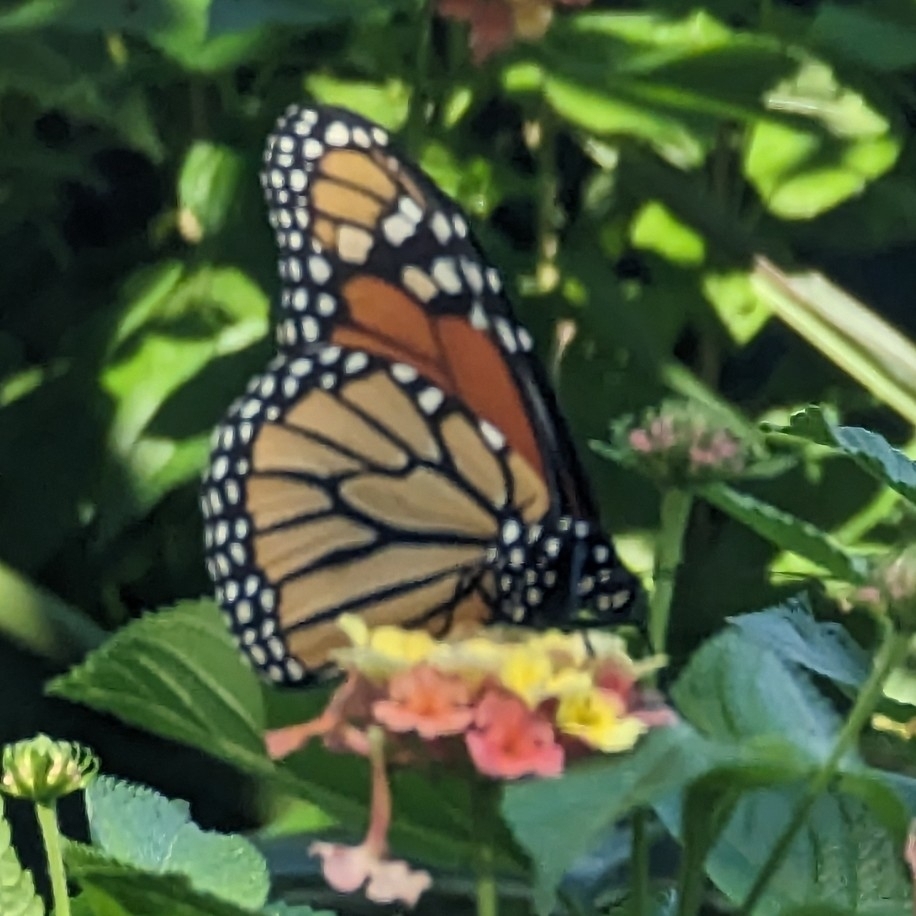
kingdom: Animalia
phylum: Arthropoda
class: Insecta
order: Lepidoptera
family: Nymphalidae
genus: Danaus
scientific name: Danaus plexippus
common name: Monarch
